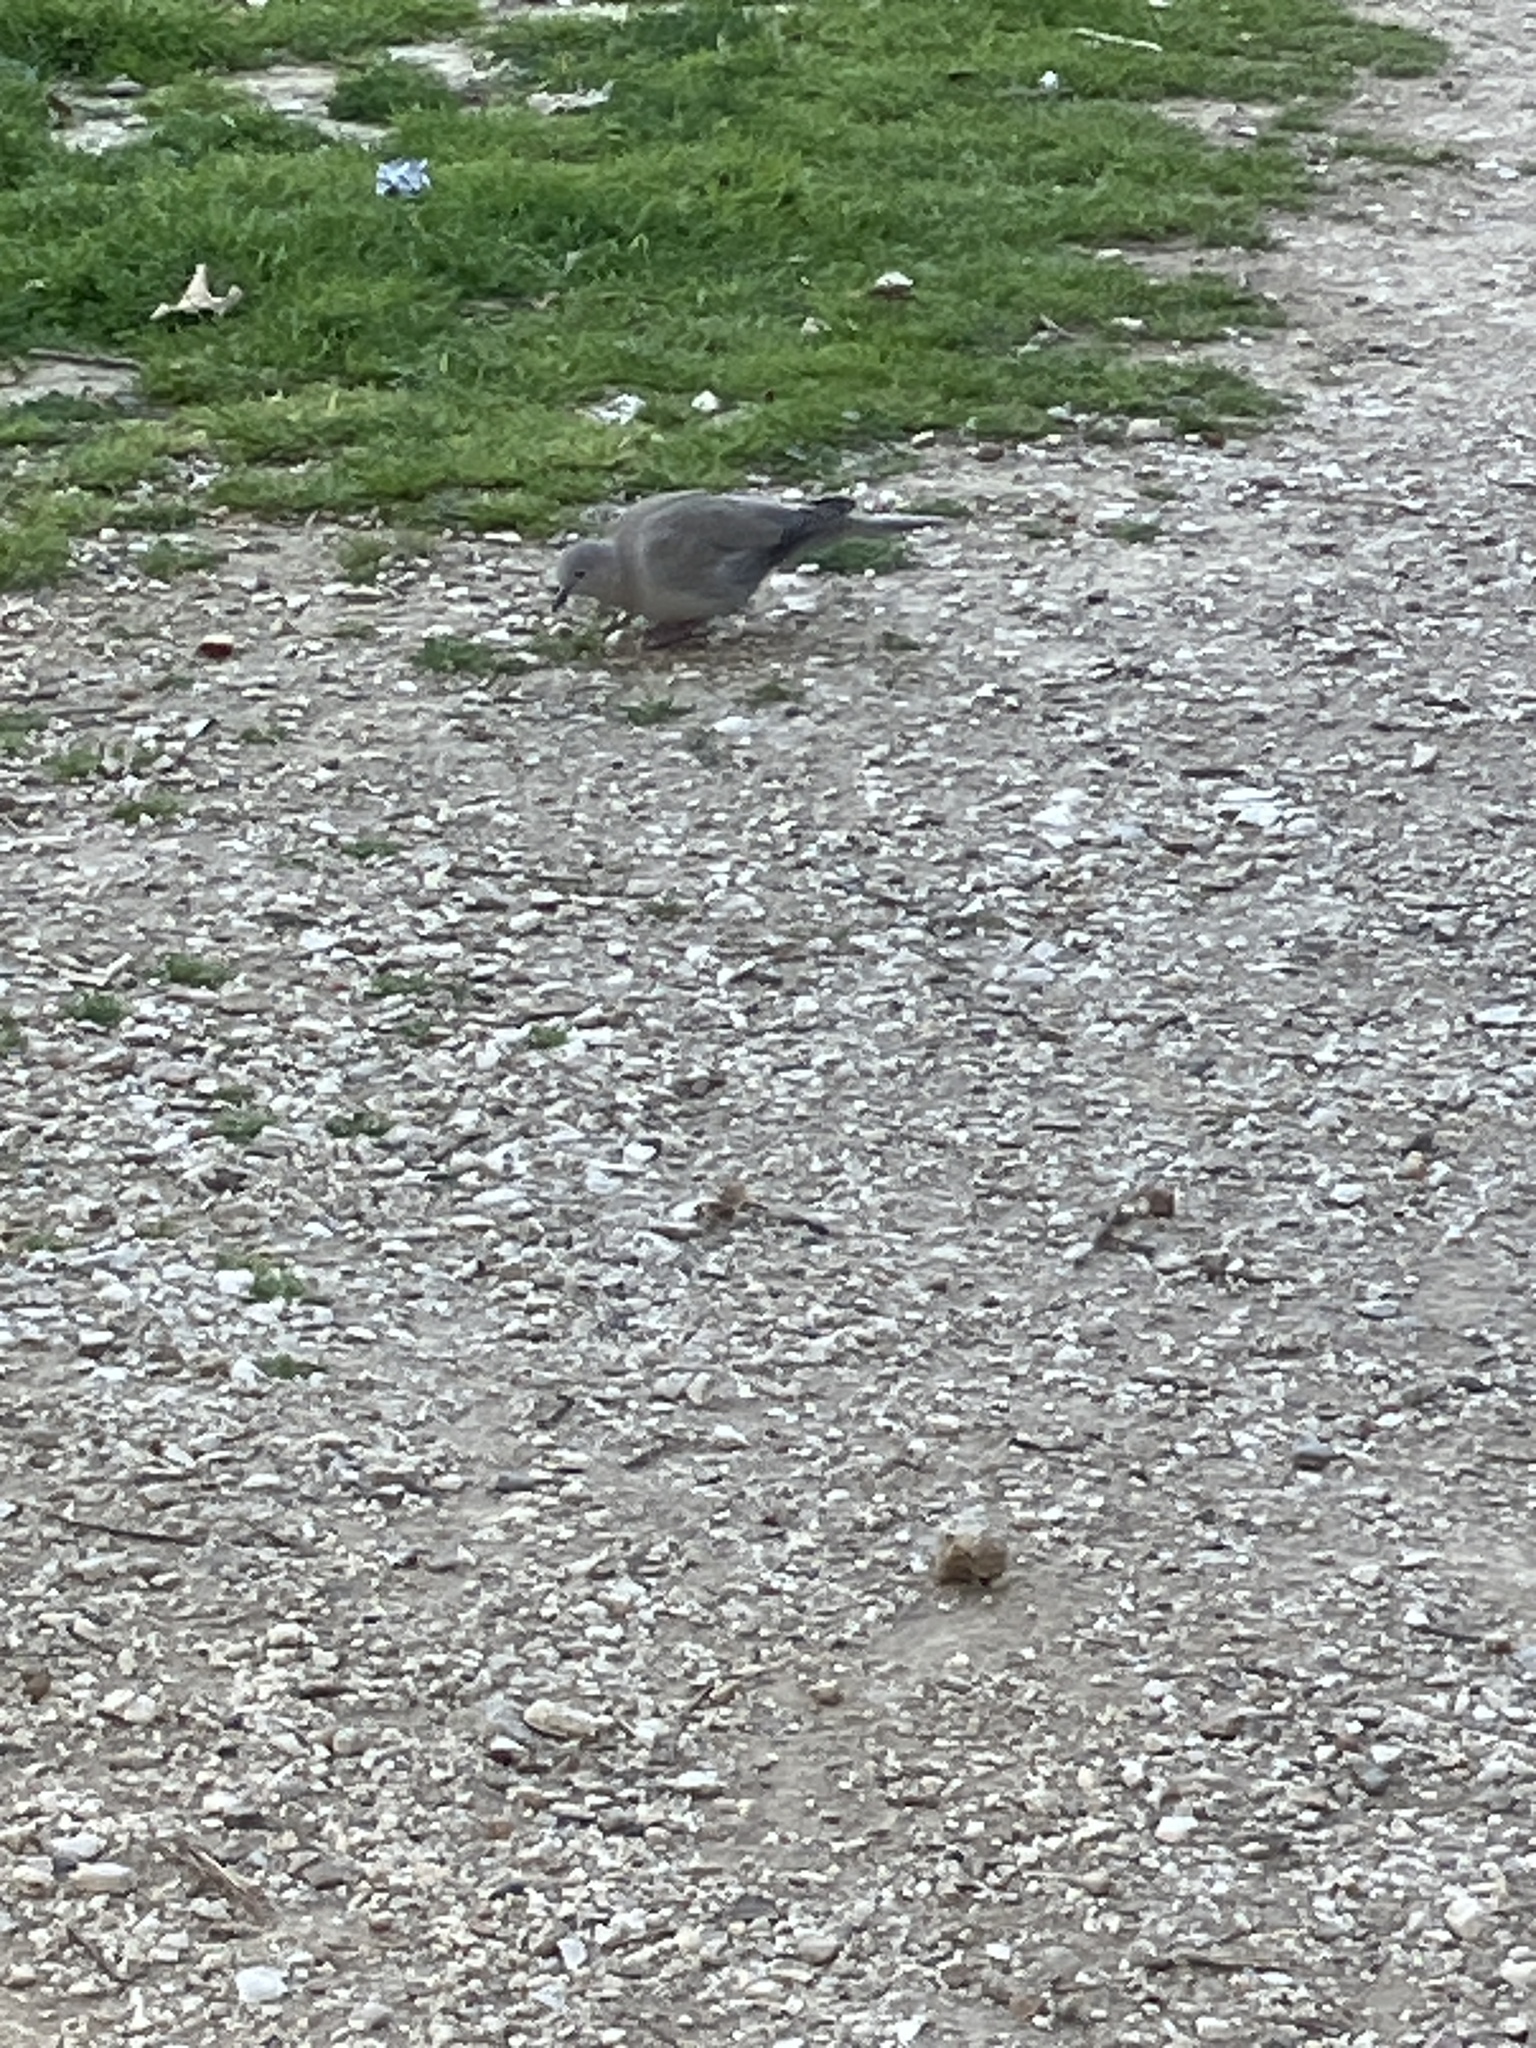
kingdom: Animalia
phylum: Chordata
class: Aves
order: Columbiformes
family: Columbidae
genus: Streptopelia
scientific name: Streptopelia decaocto
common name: Eurasian collared dove
